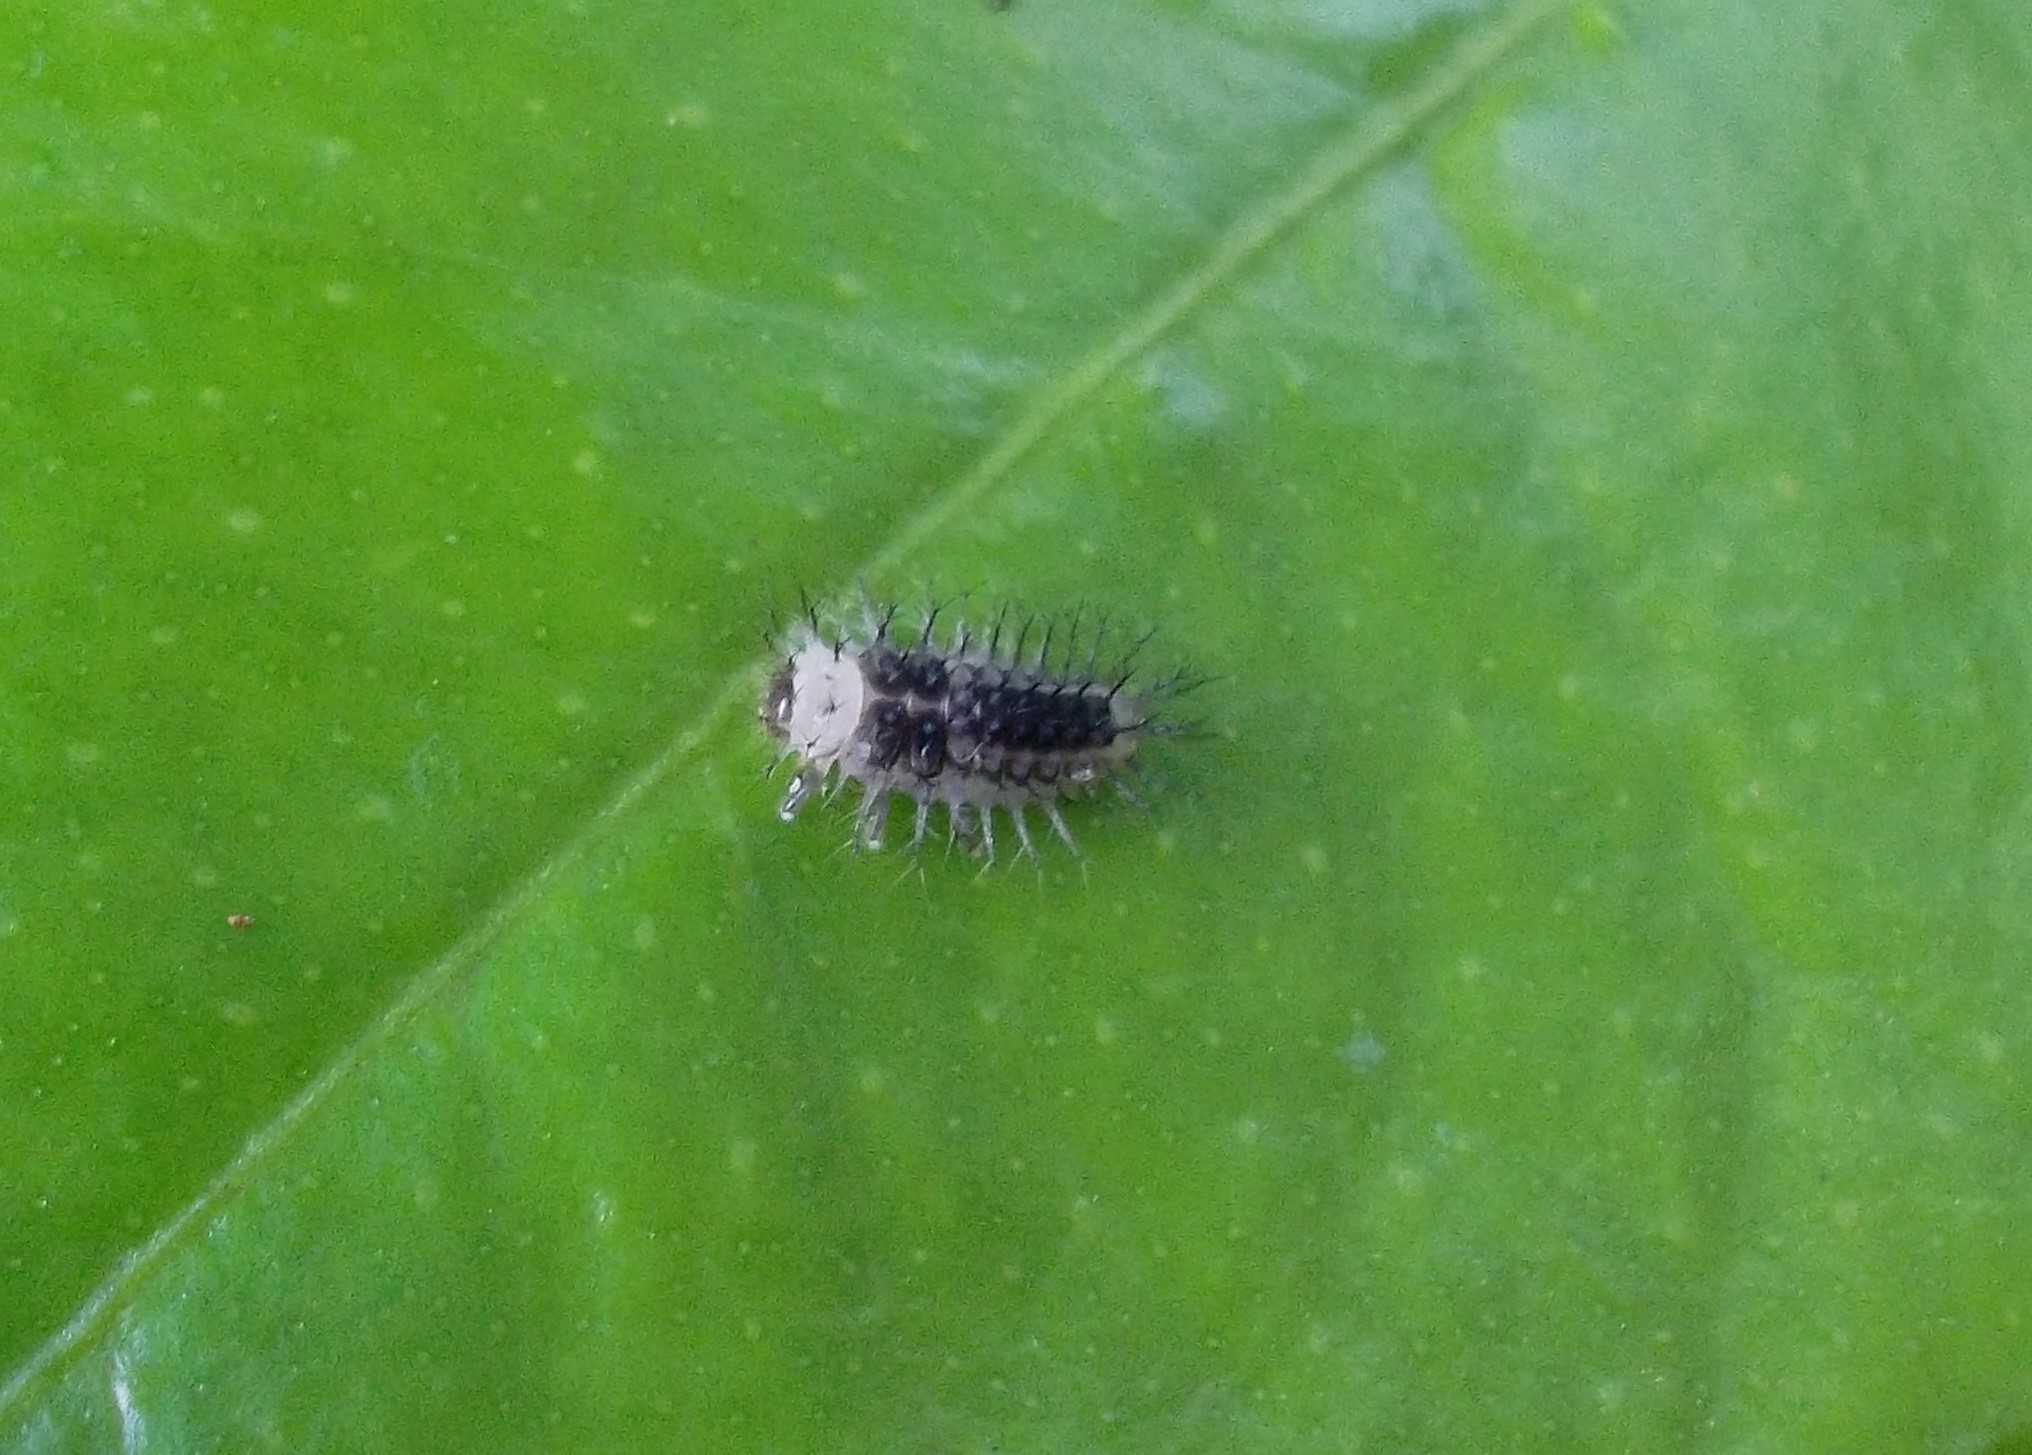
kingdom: Animalia
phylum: Arthropoda
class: Insecta
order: Coleoptera
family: Coccinellidae
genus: Halmus
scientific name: Halmus chalybeus
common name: Steel blue ladybird beetle
